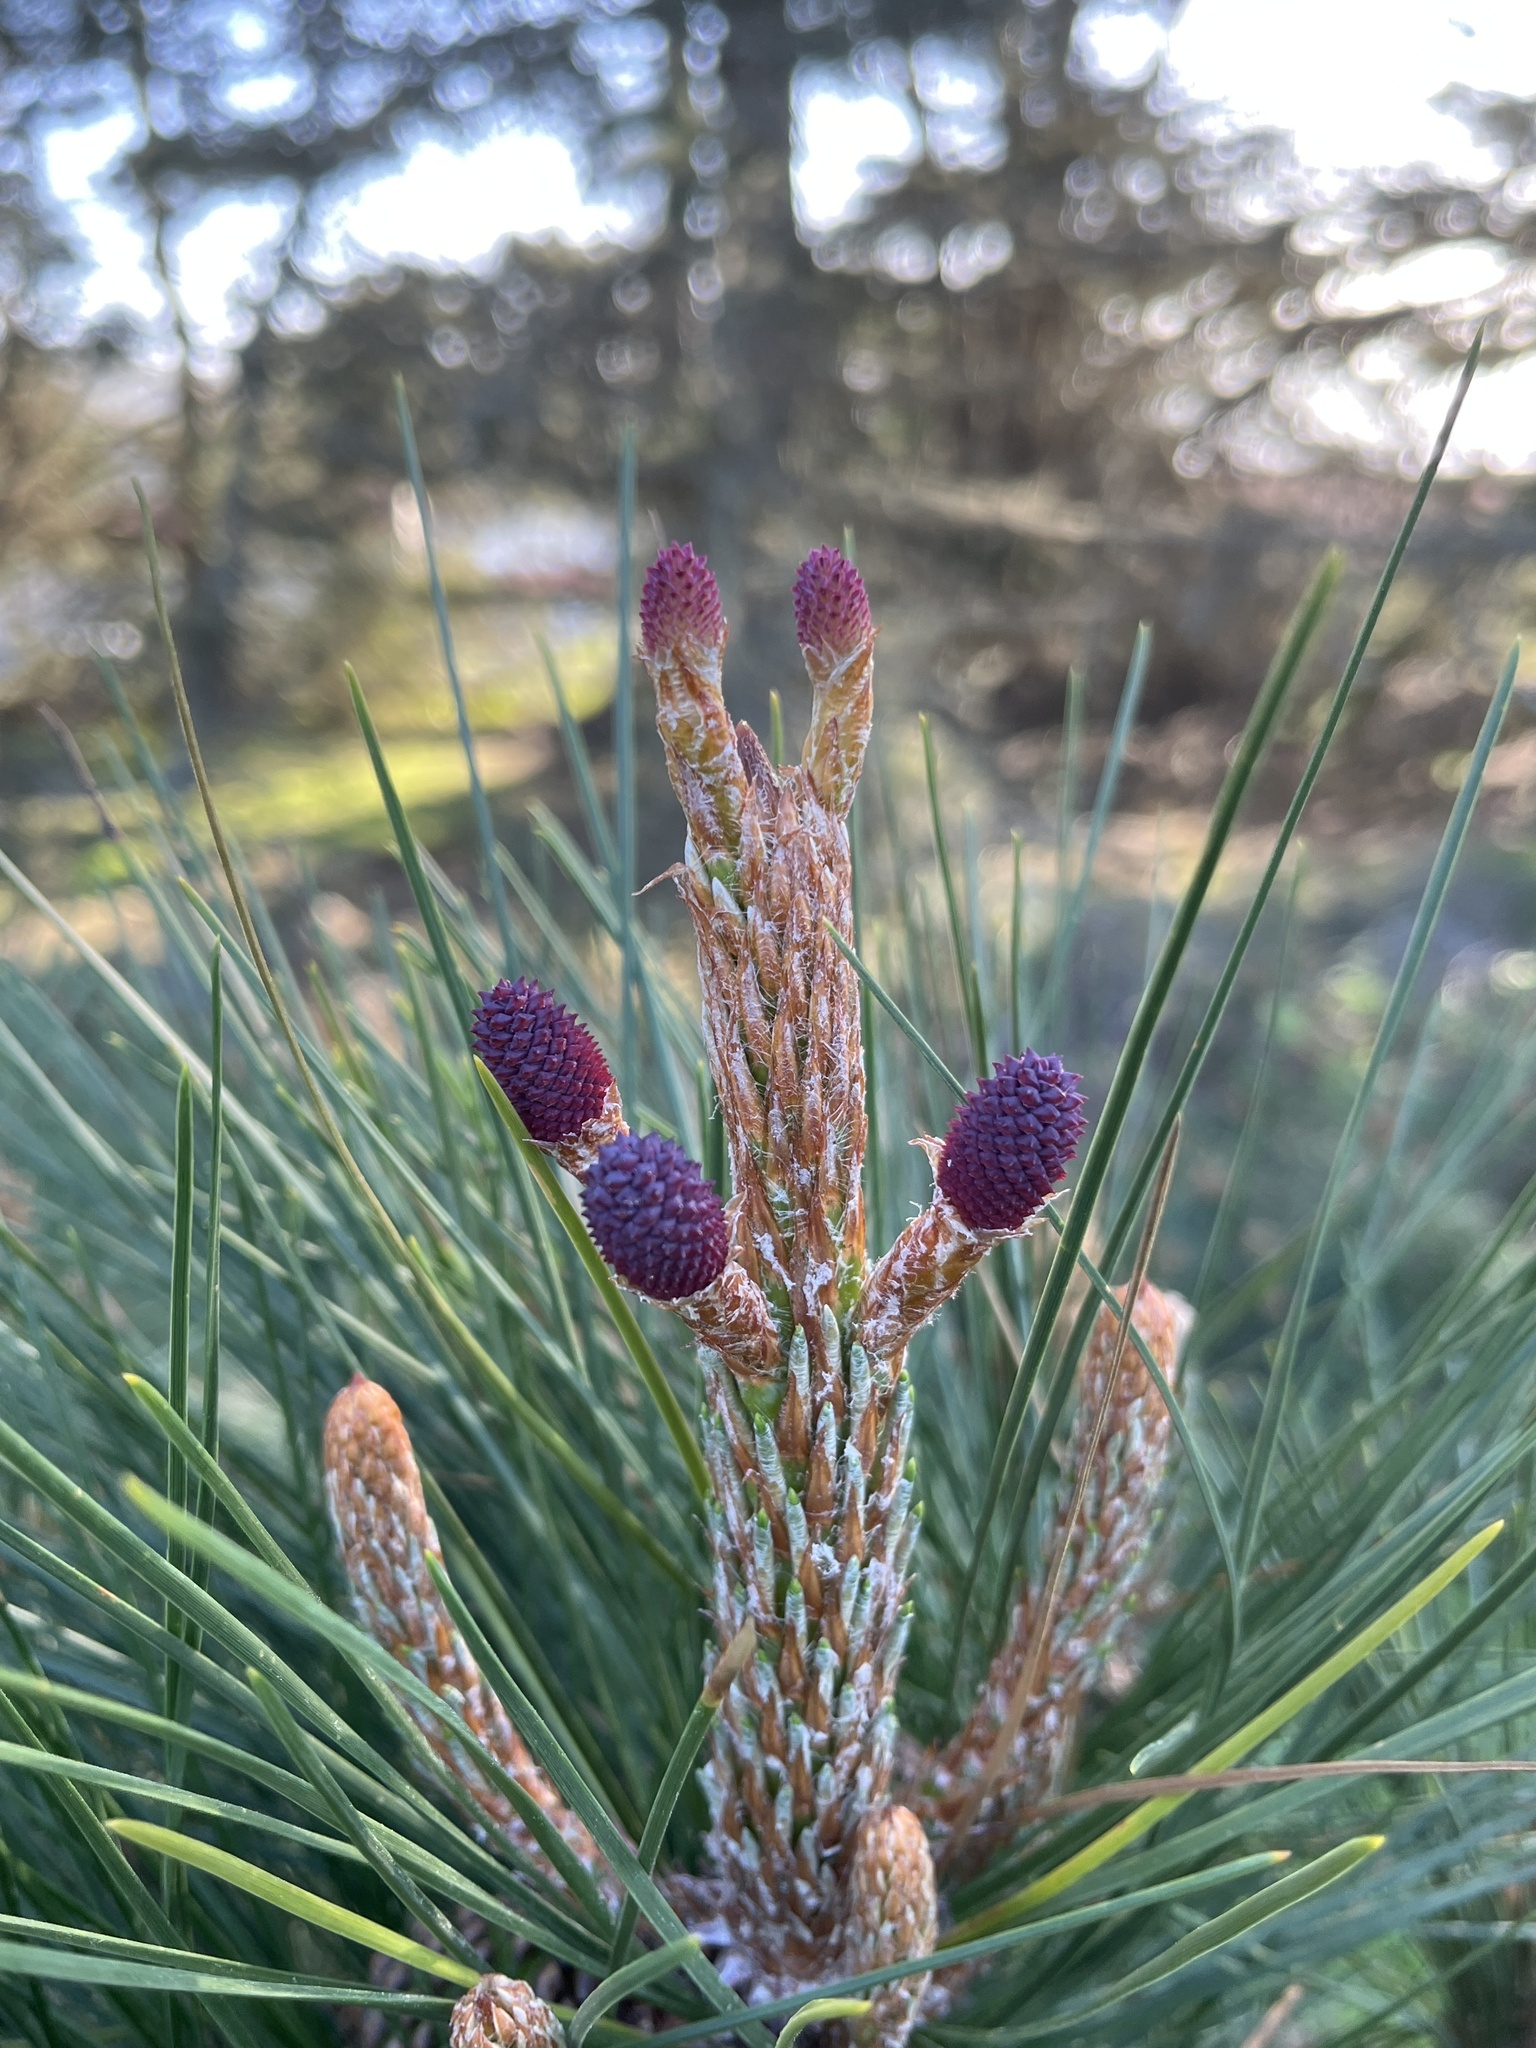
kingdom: Plantae
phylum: Tracheophyta
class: Pinopsida
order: Pinales
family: Pinaceae
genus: Pinus
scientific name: Pinus radiata
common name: Monterey pine
